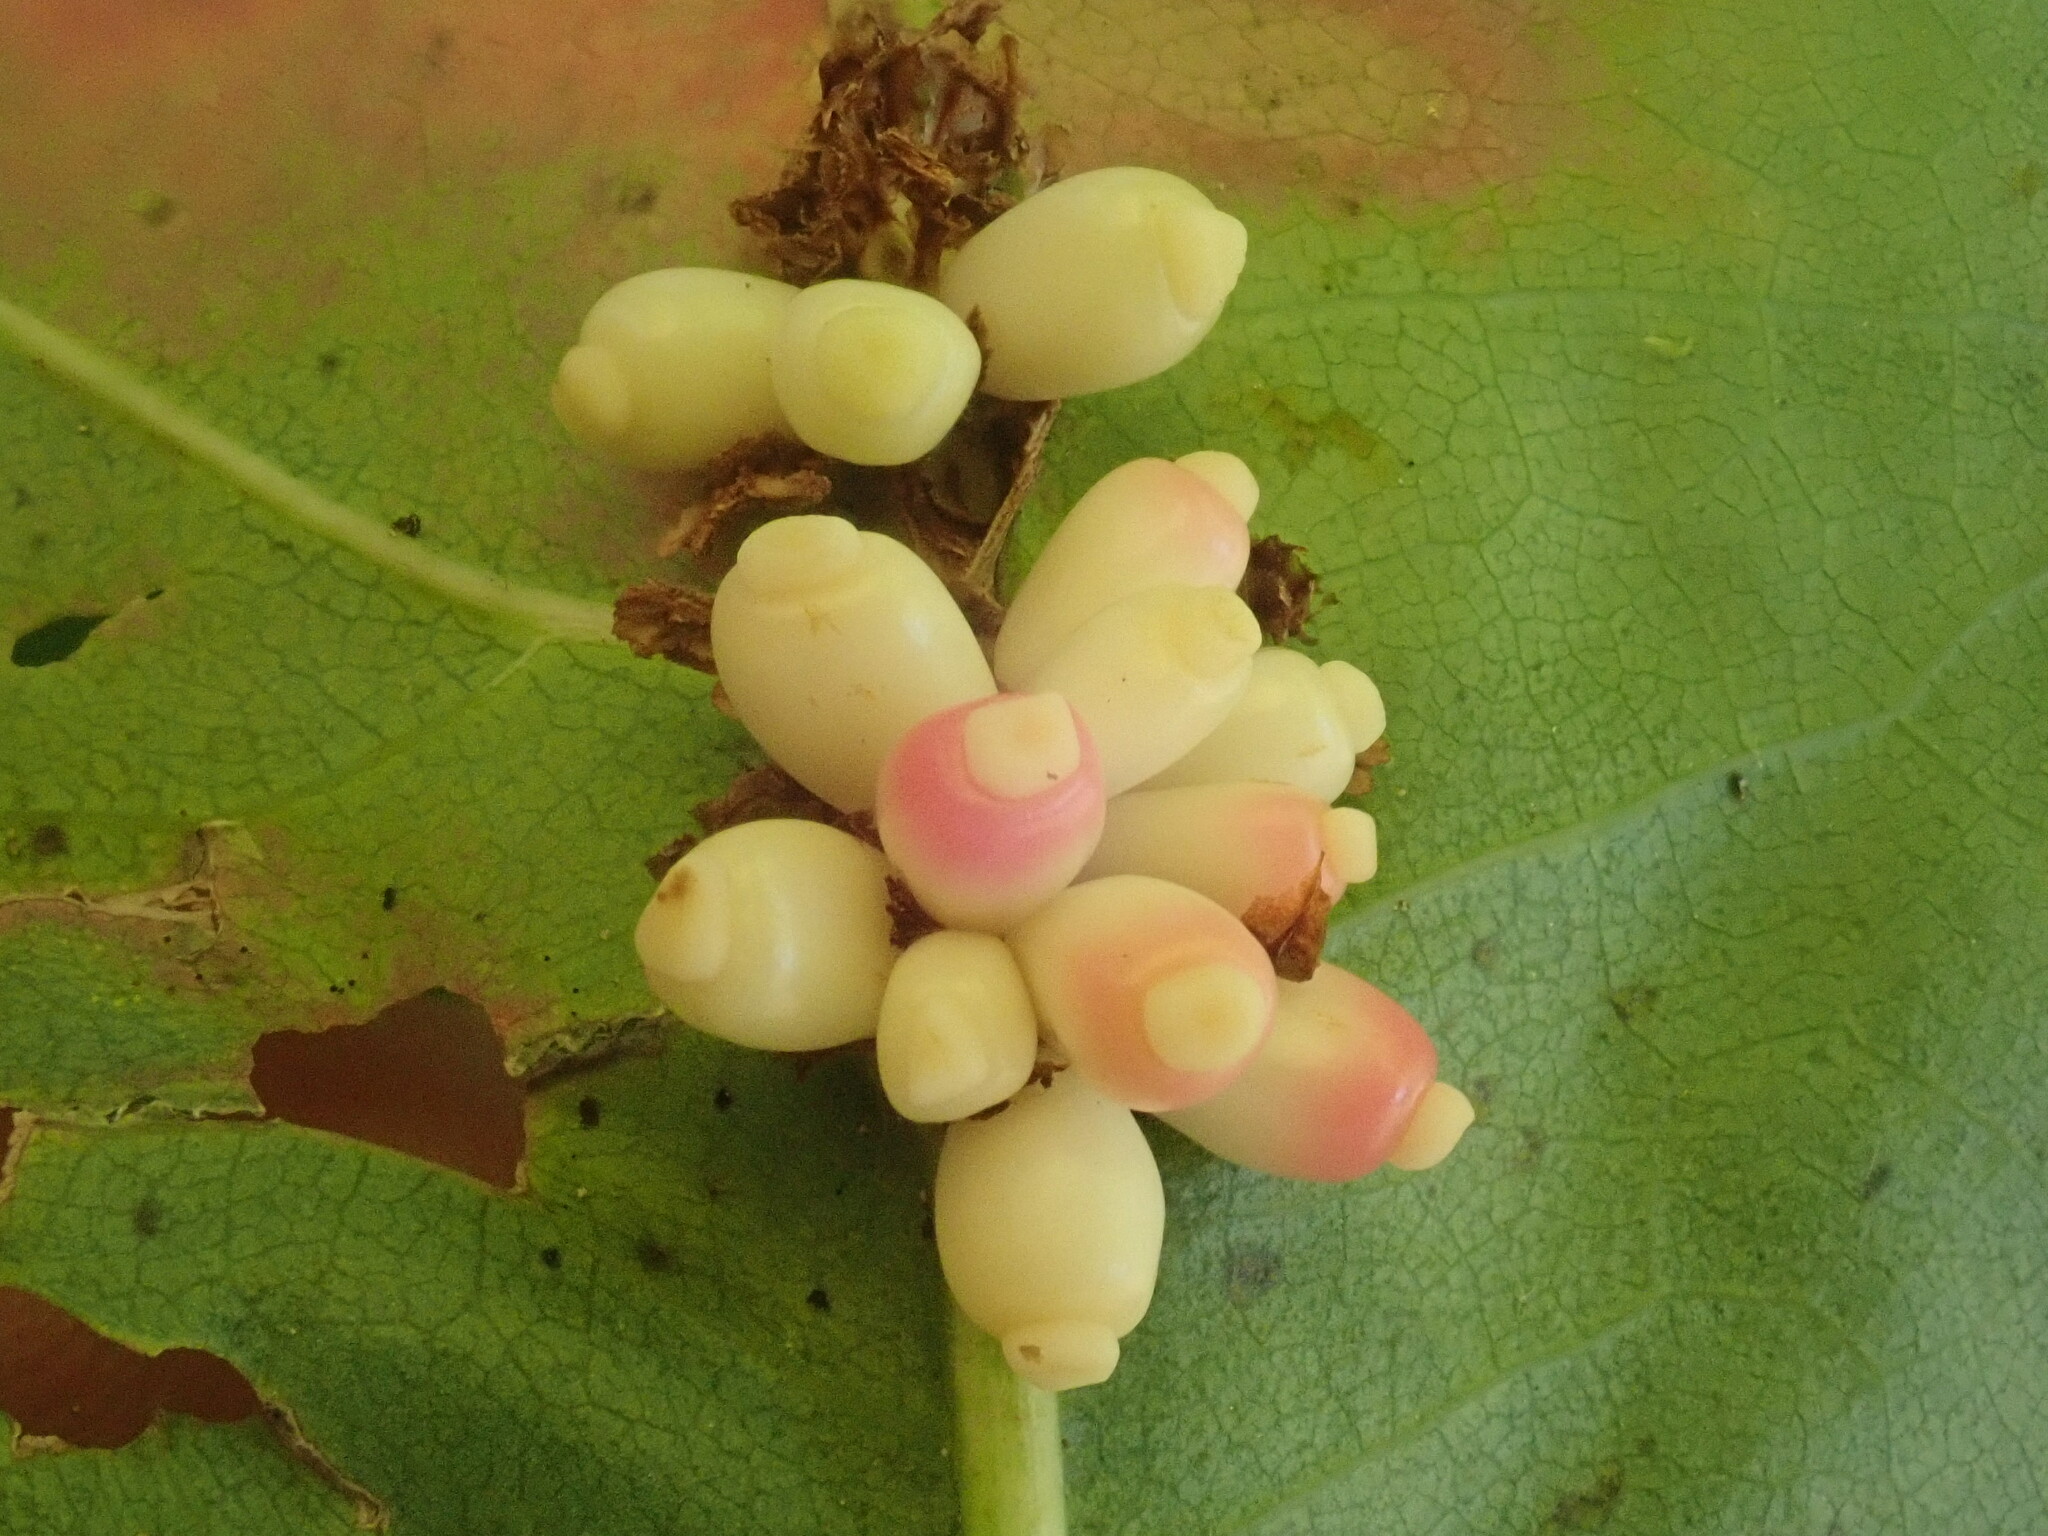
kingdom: Animalia
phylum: Arthropoda
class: Insecta
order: Hymenoptera
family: Cynipidae
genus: Kokkocynips
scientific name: Kokkocynips decidua
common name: Oak wheat gall
